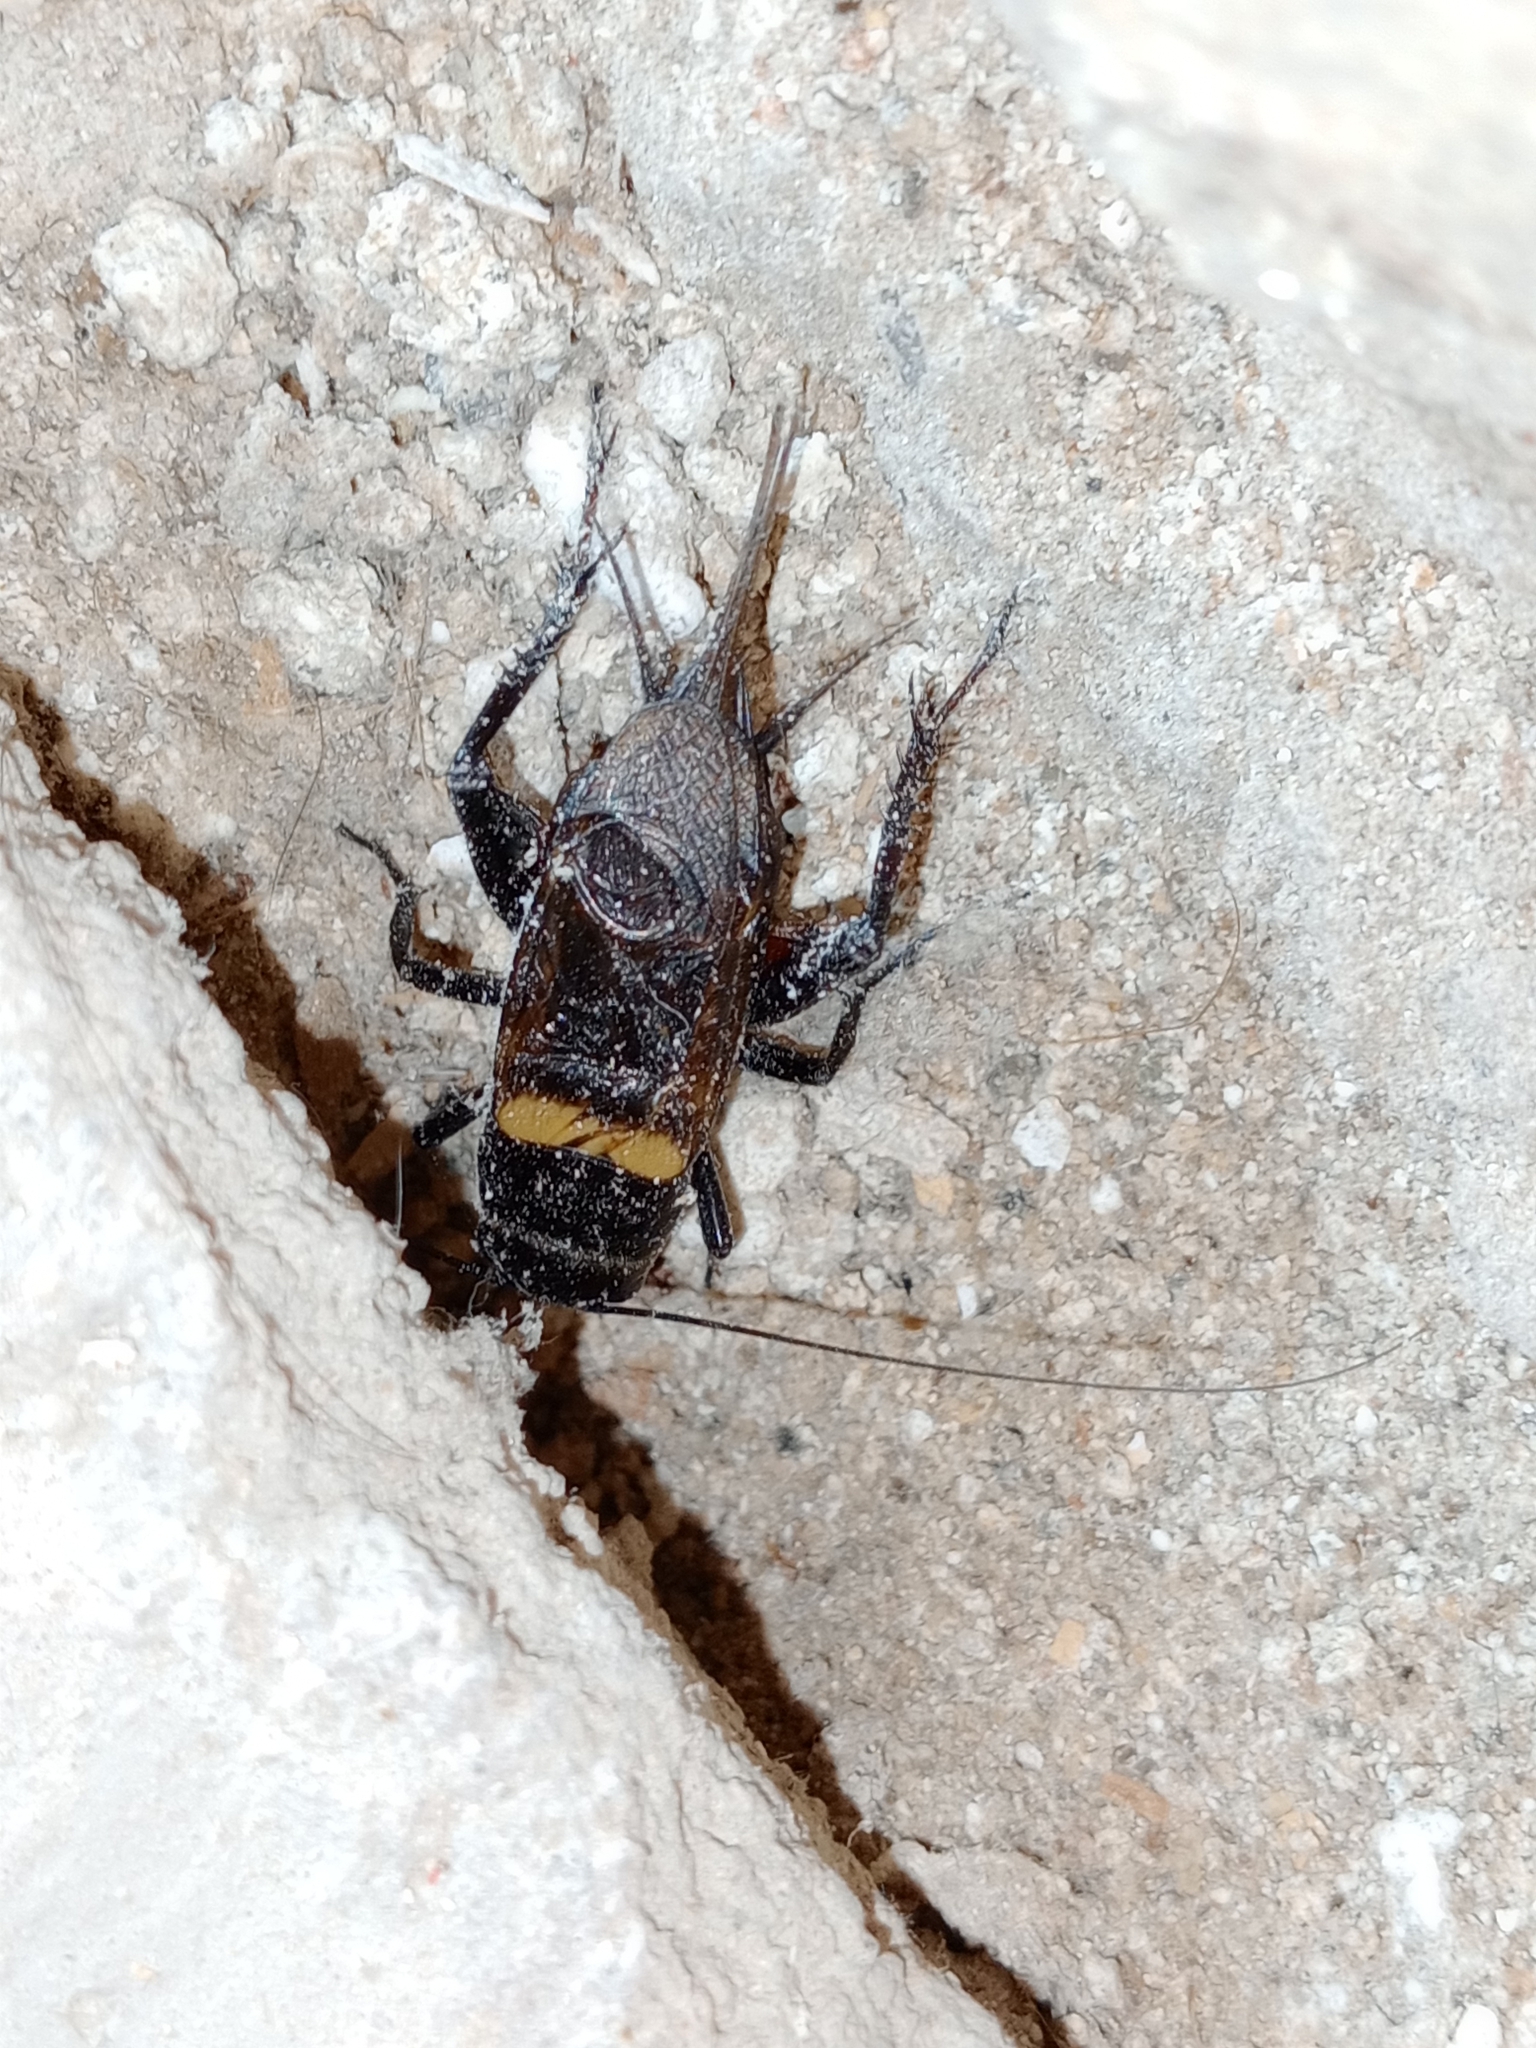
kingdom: Animalia
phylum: Arthropoda
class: Insecta
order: Orthoptera
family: Gryllidae
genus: Gryllus
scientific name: Gryllus bimaculatus
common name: Two-spotted cricket
